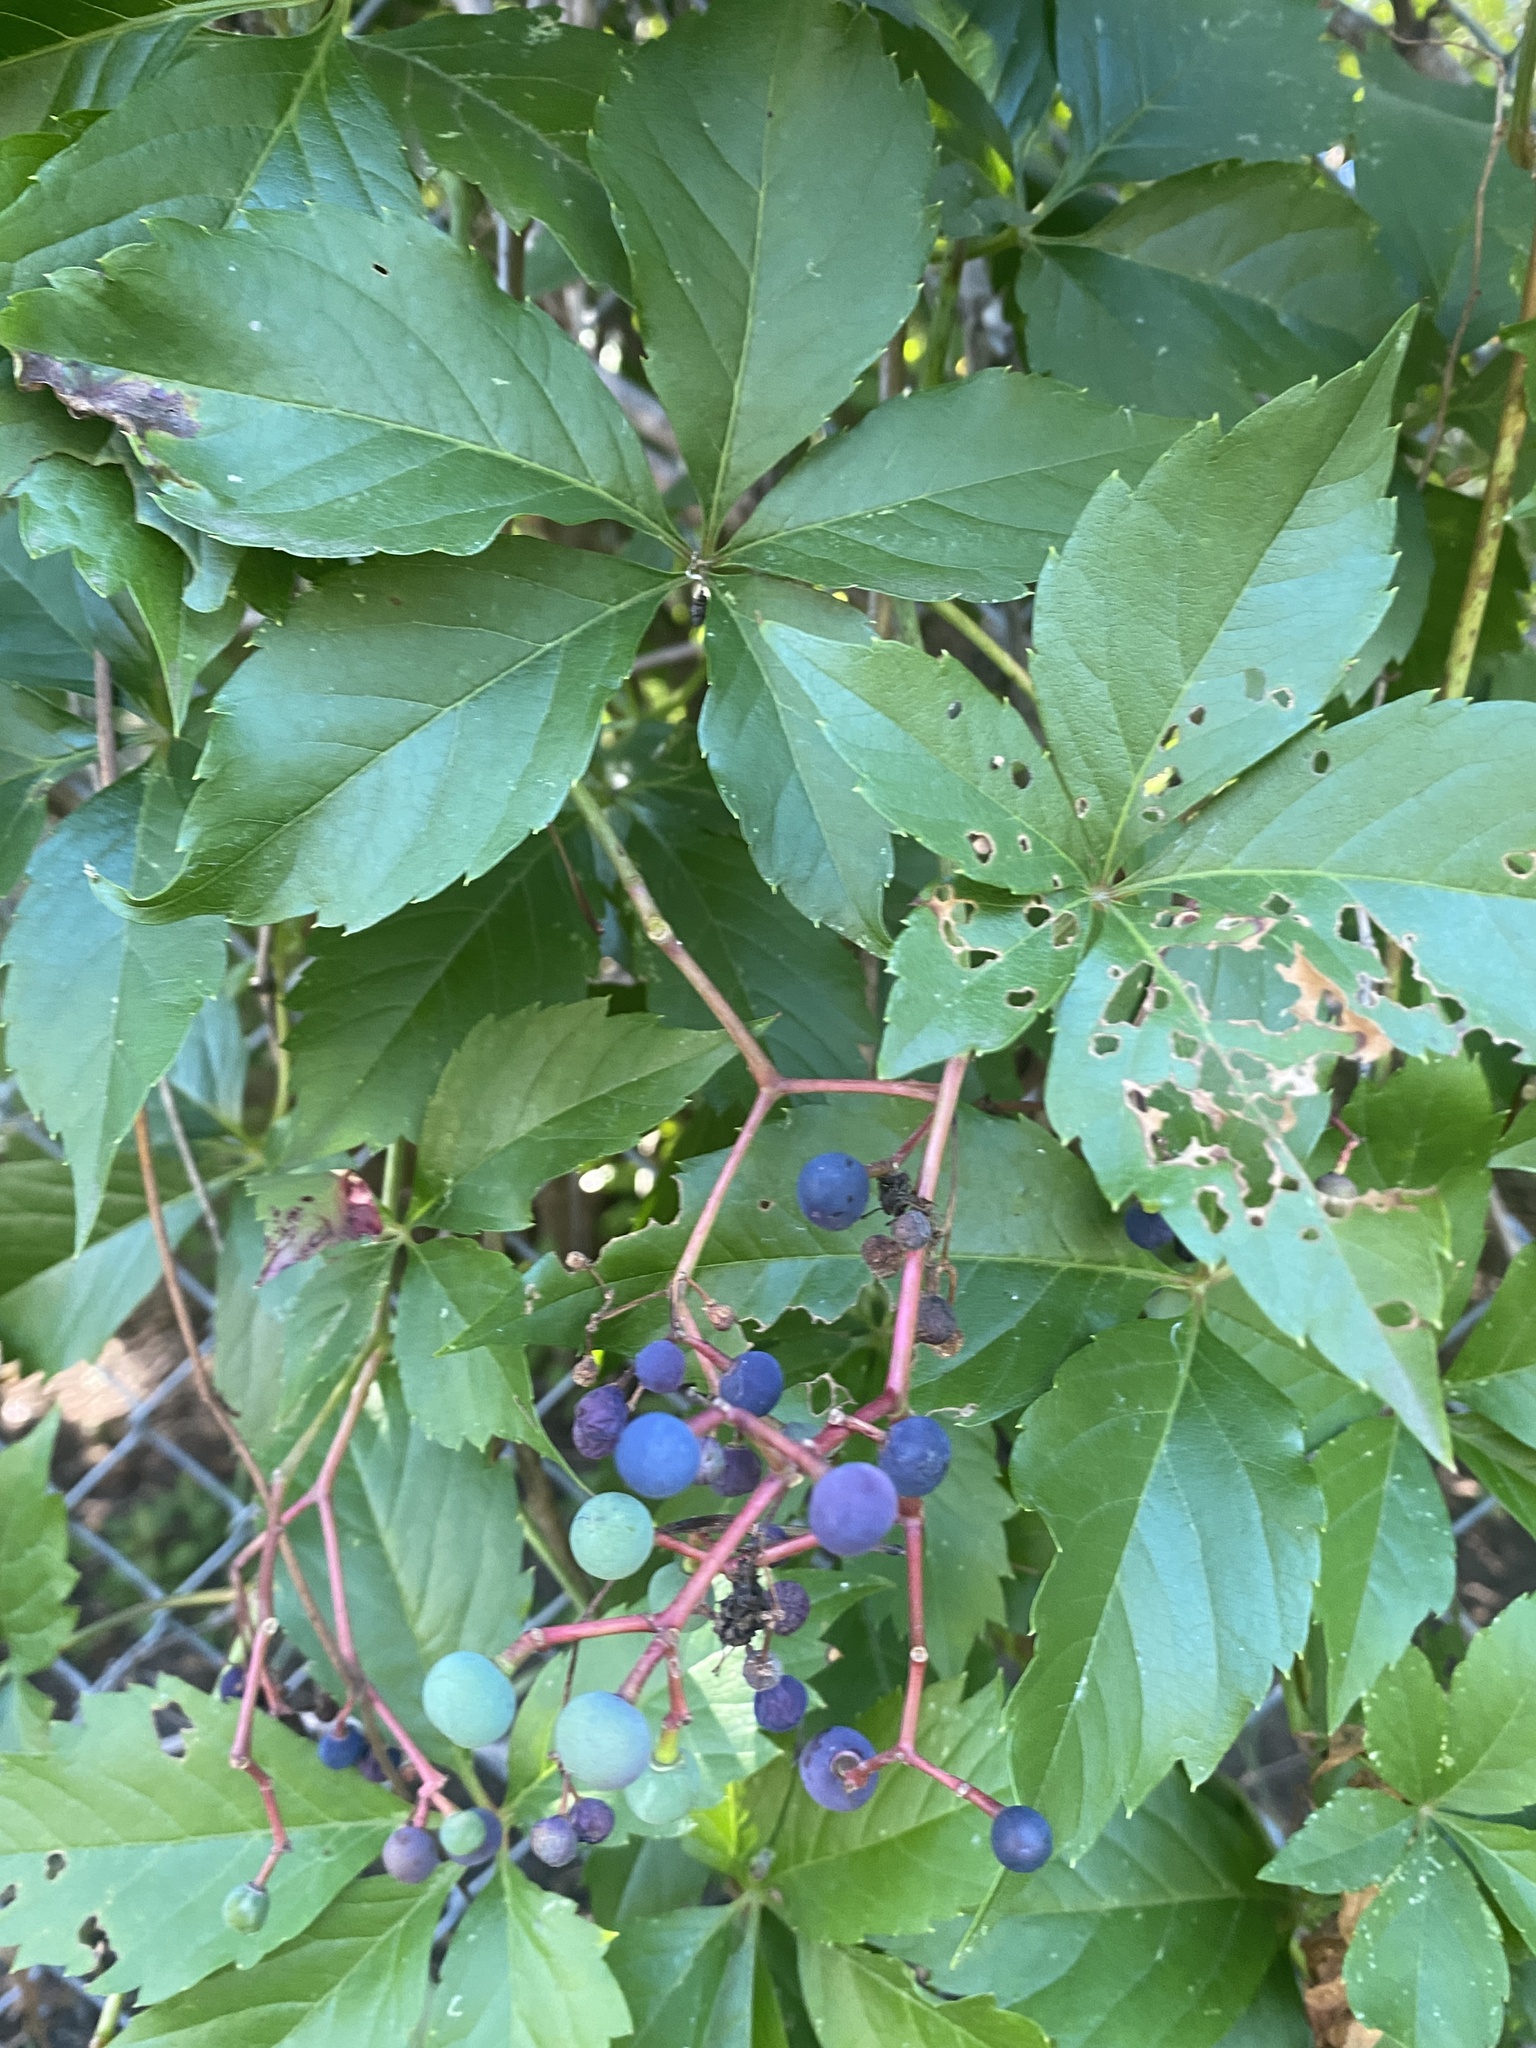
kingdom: Plantae
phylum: Tracheophyta
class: Magnoliopsida
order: Vitales
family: Vitaceae
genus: Parthenocissus
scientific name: Parthenocissus quinquefolia
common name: Virginia-creeper
